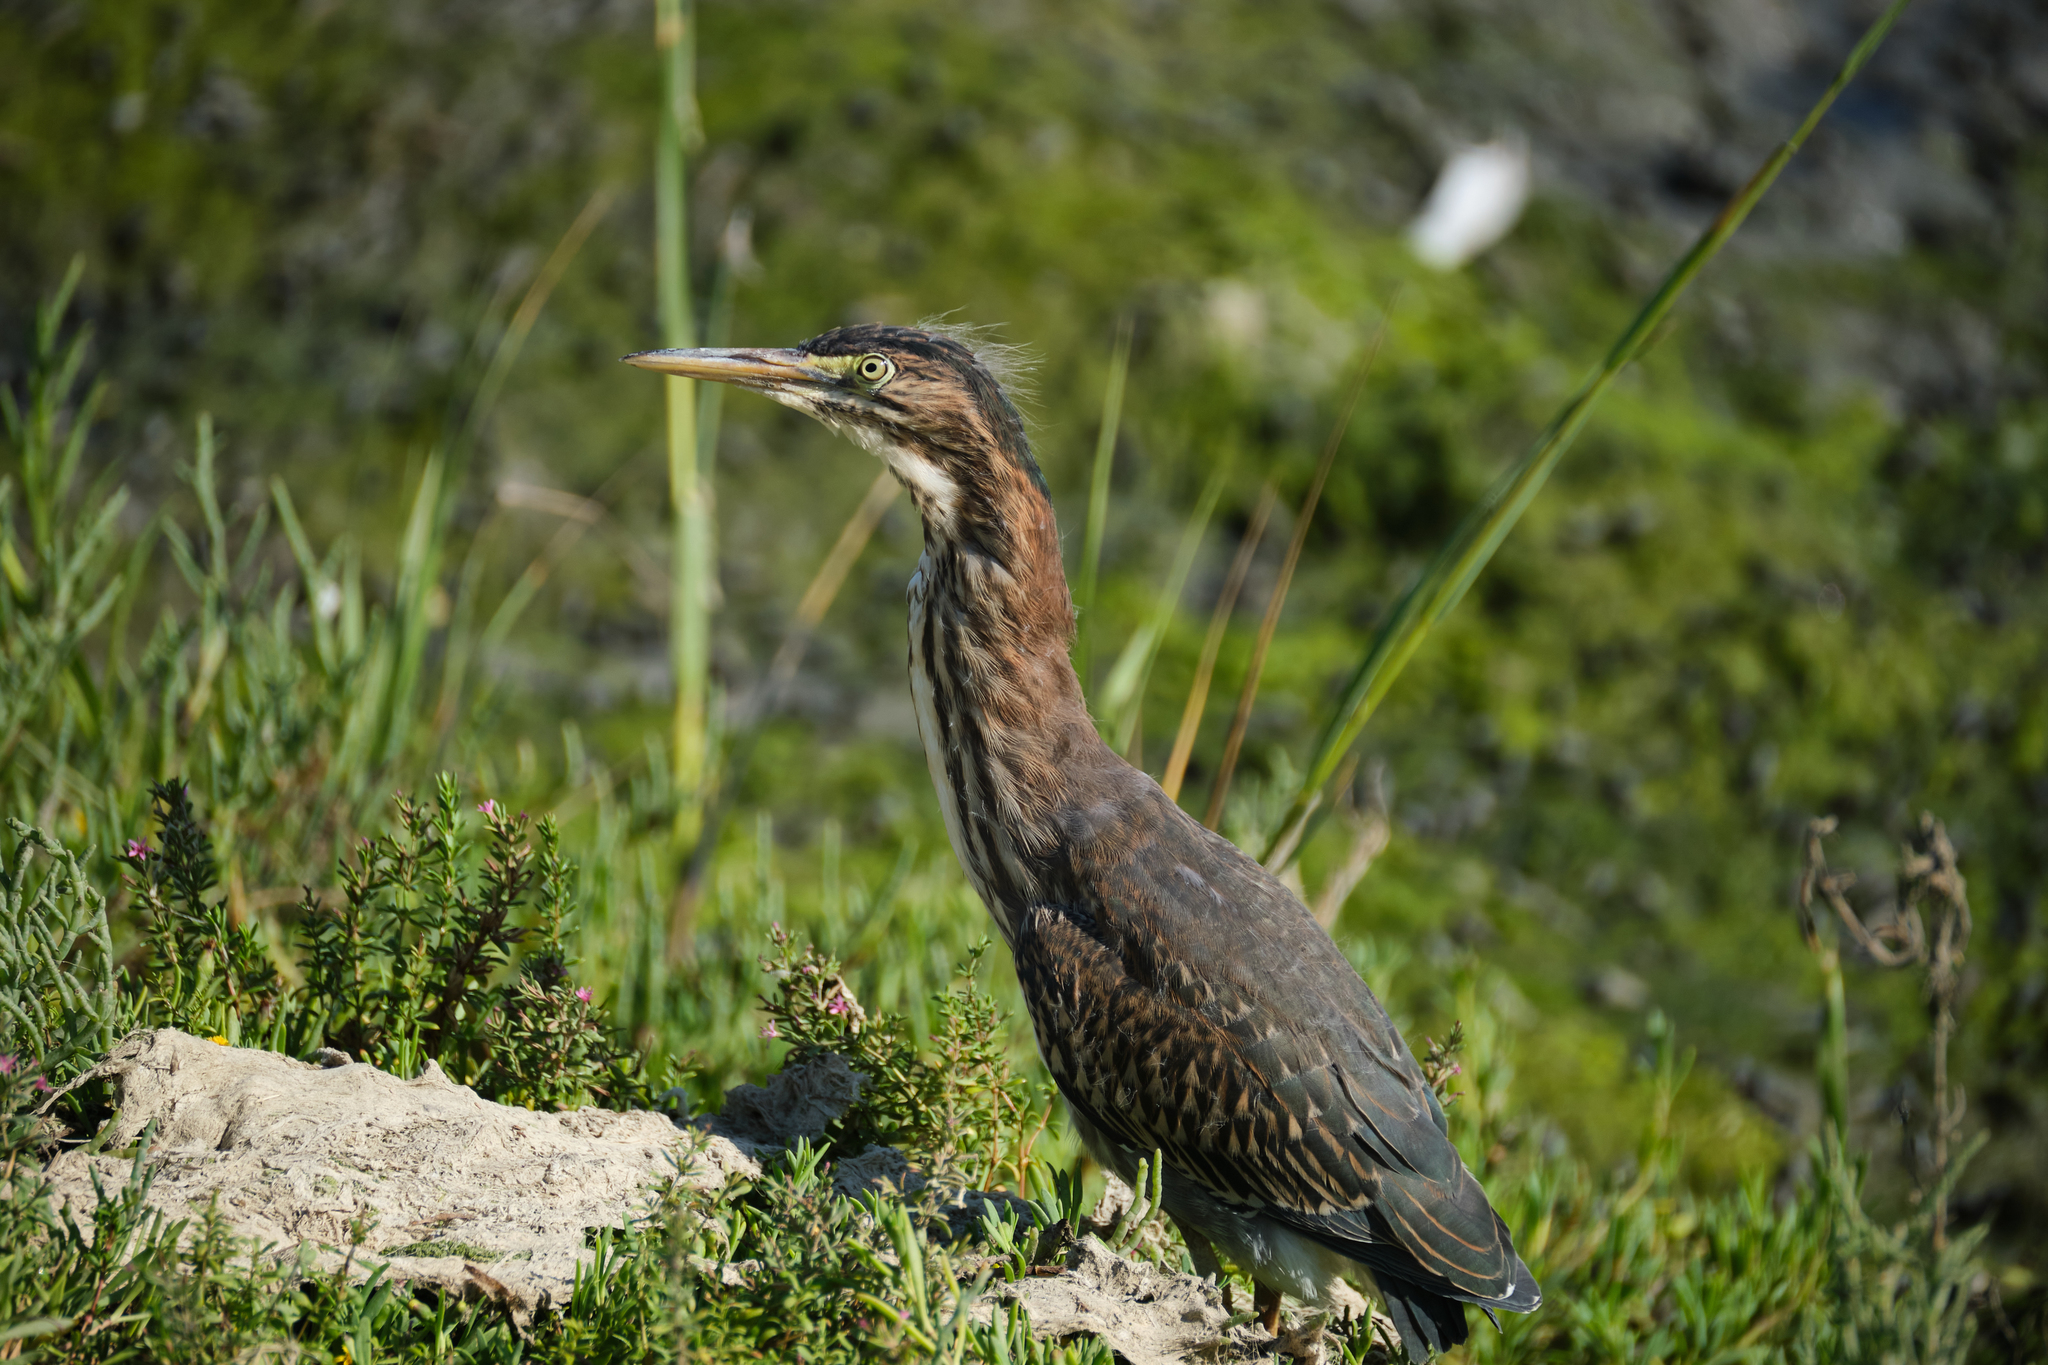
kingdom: Animalia
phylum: Chordata
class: Aves
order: Pelecaniformes
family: Ardeidae
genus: Butorides
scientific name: Butorides virescens
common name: Green heron
